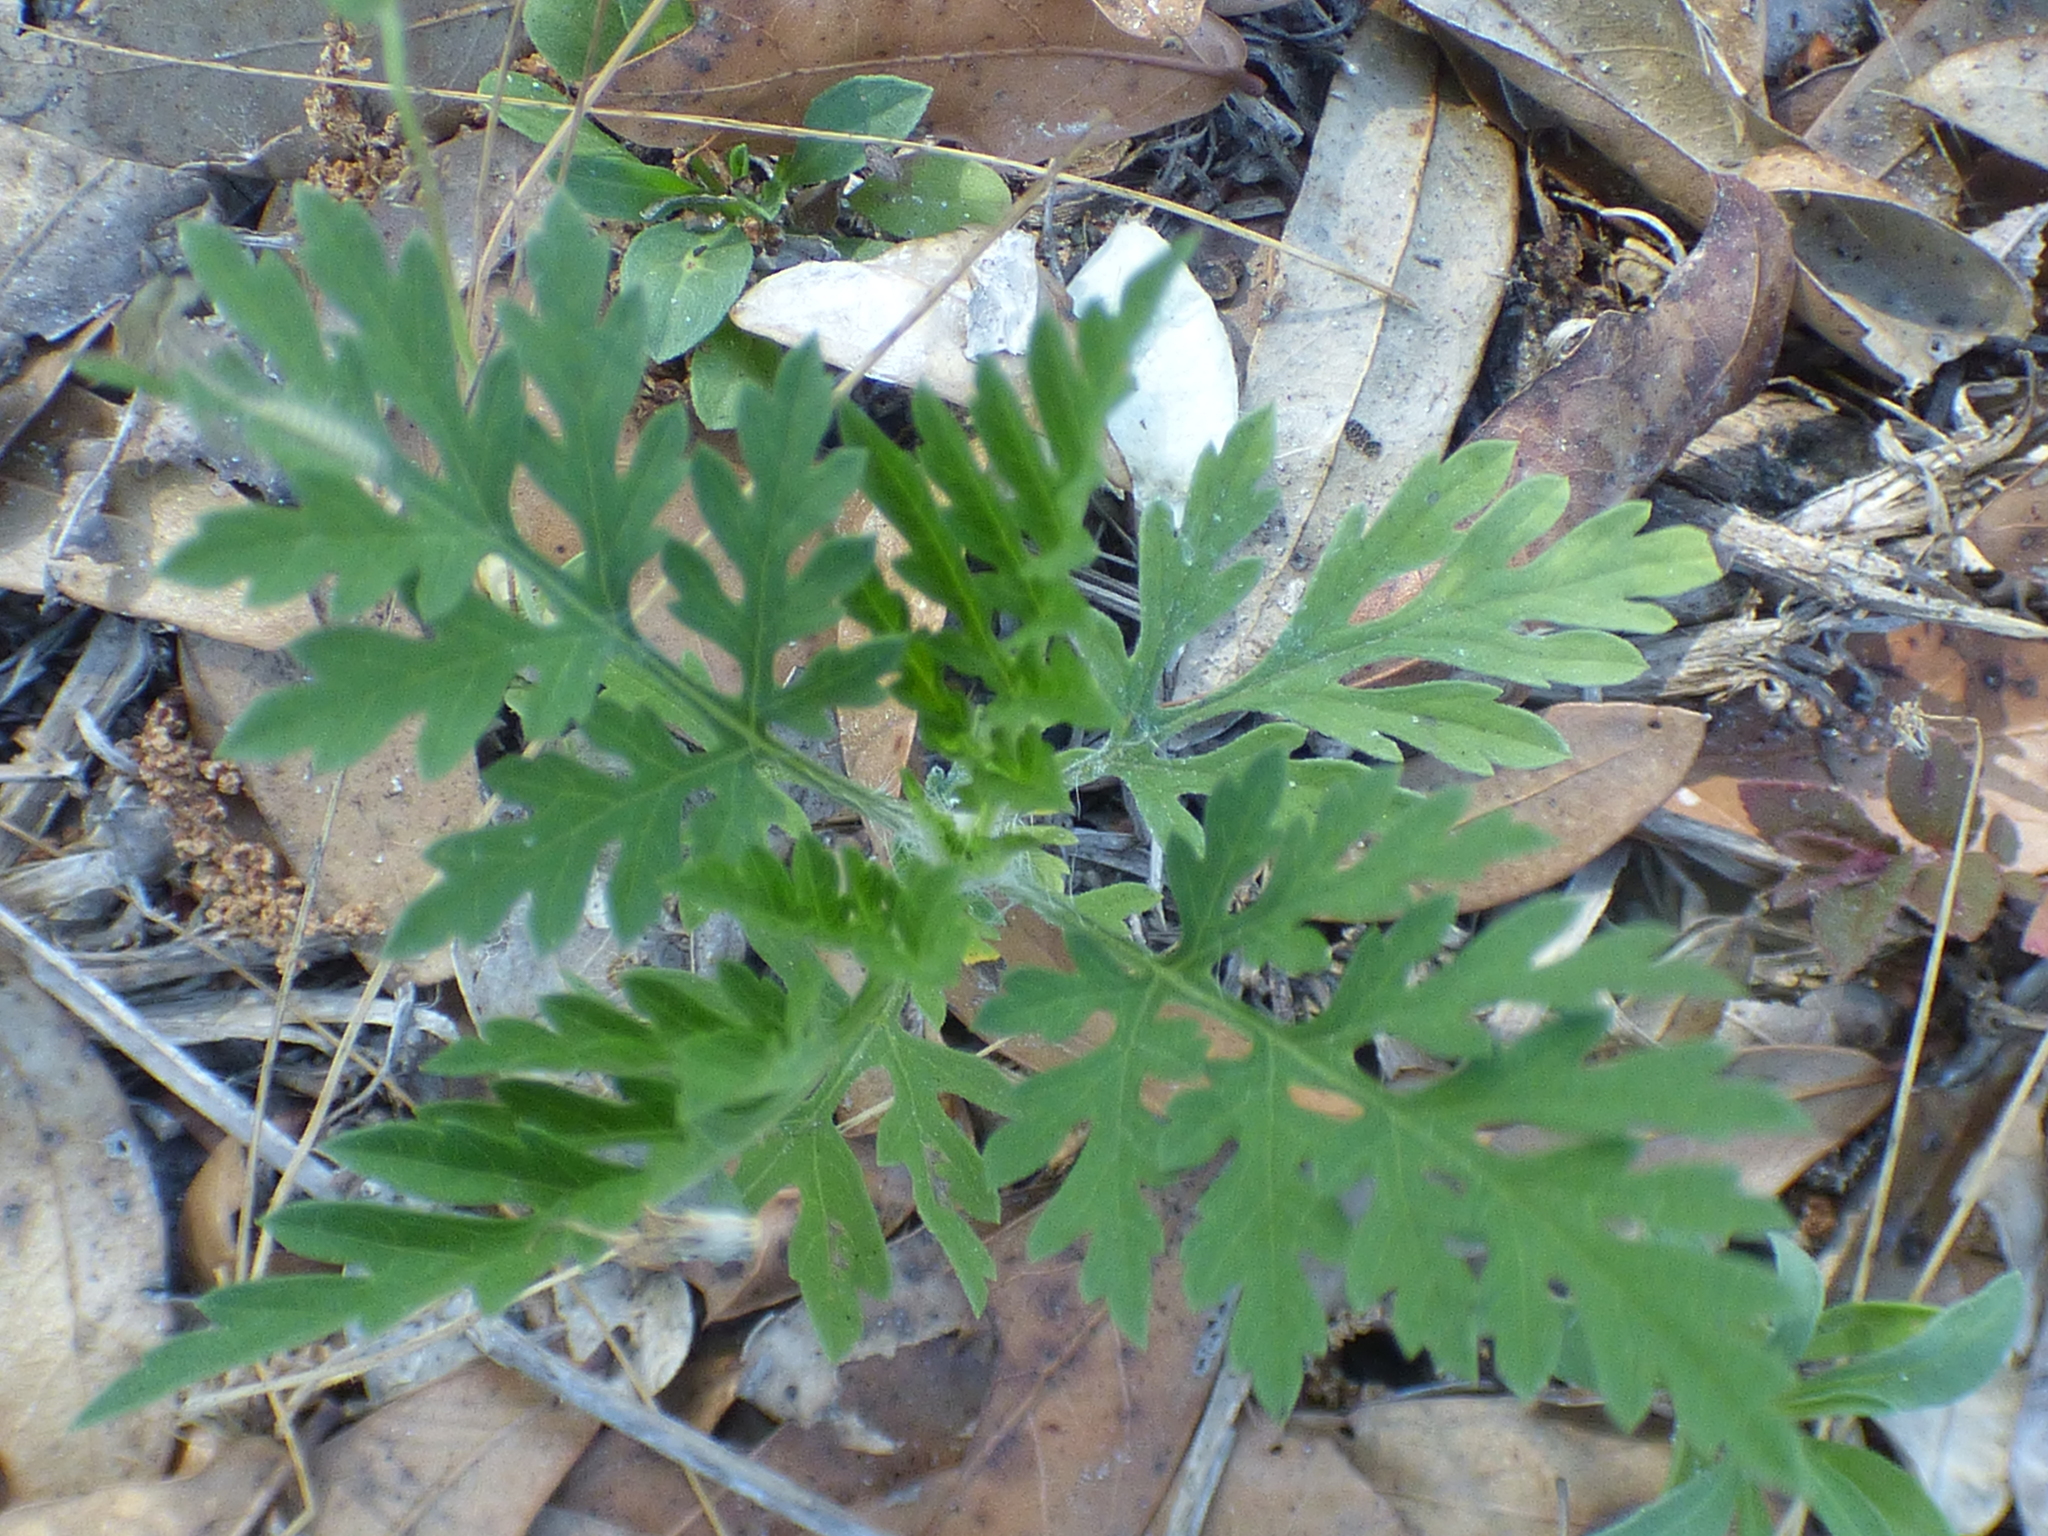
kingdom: Plantae
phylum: Tracheophyta
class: Magnoliopsida
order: Asterales
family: Asteraceae
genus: Ambrosia
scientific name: Ambrosia artemisiifolia
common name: Annual ragweed
